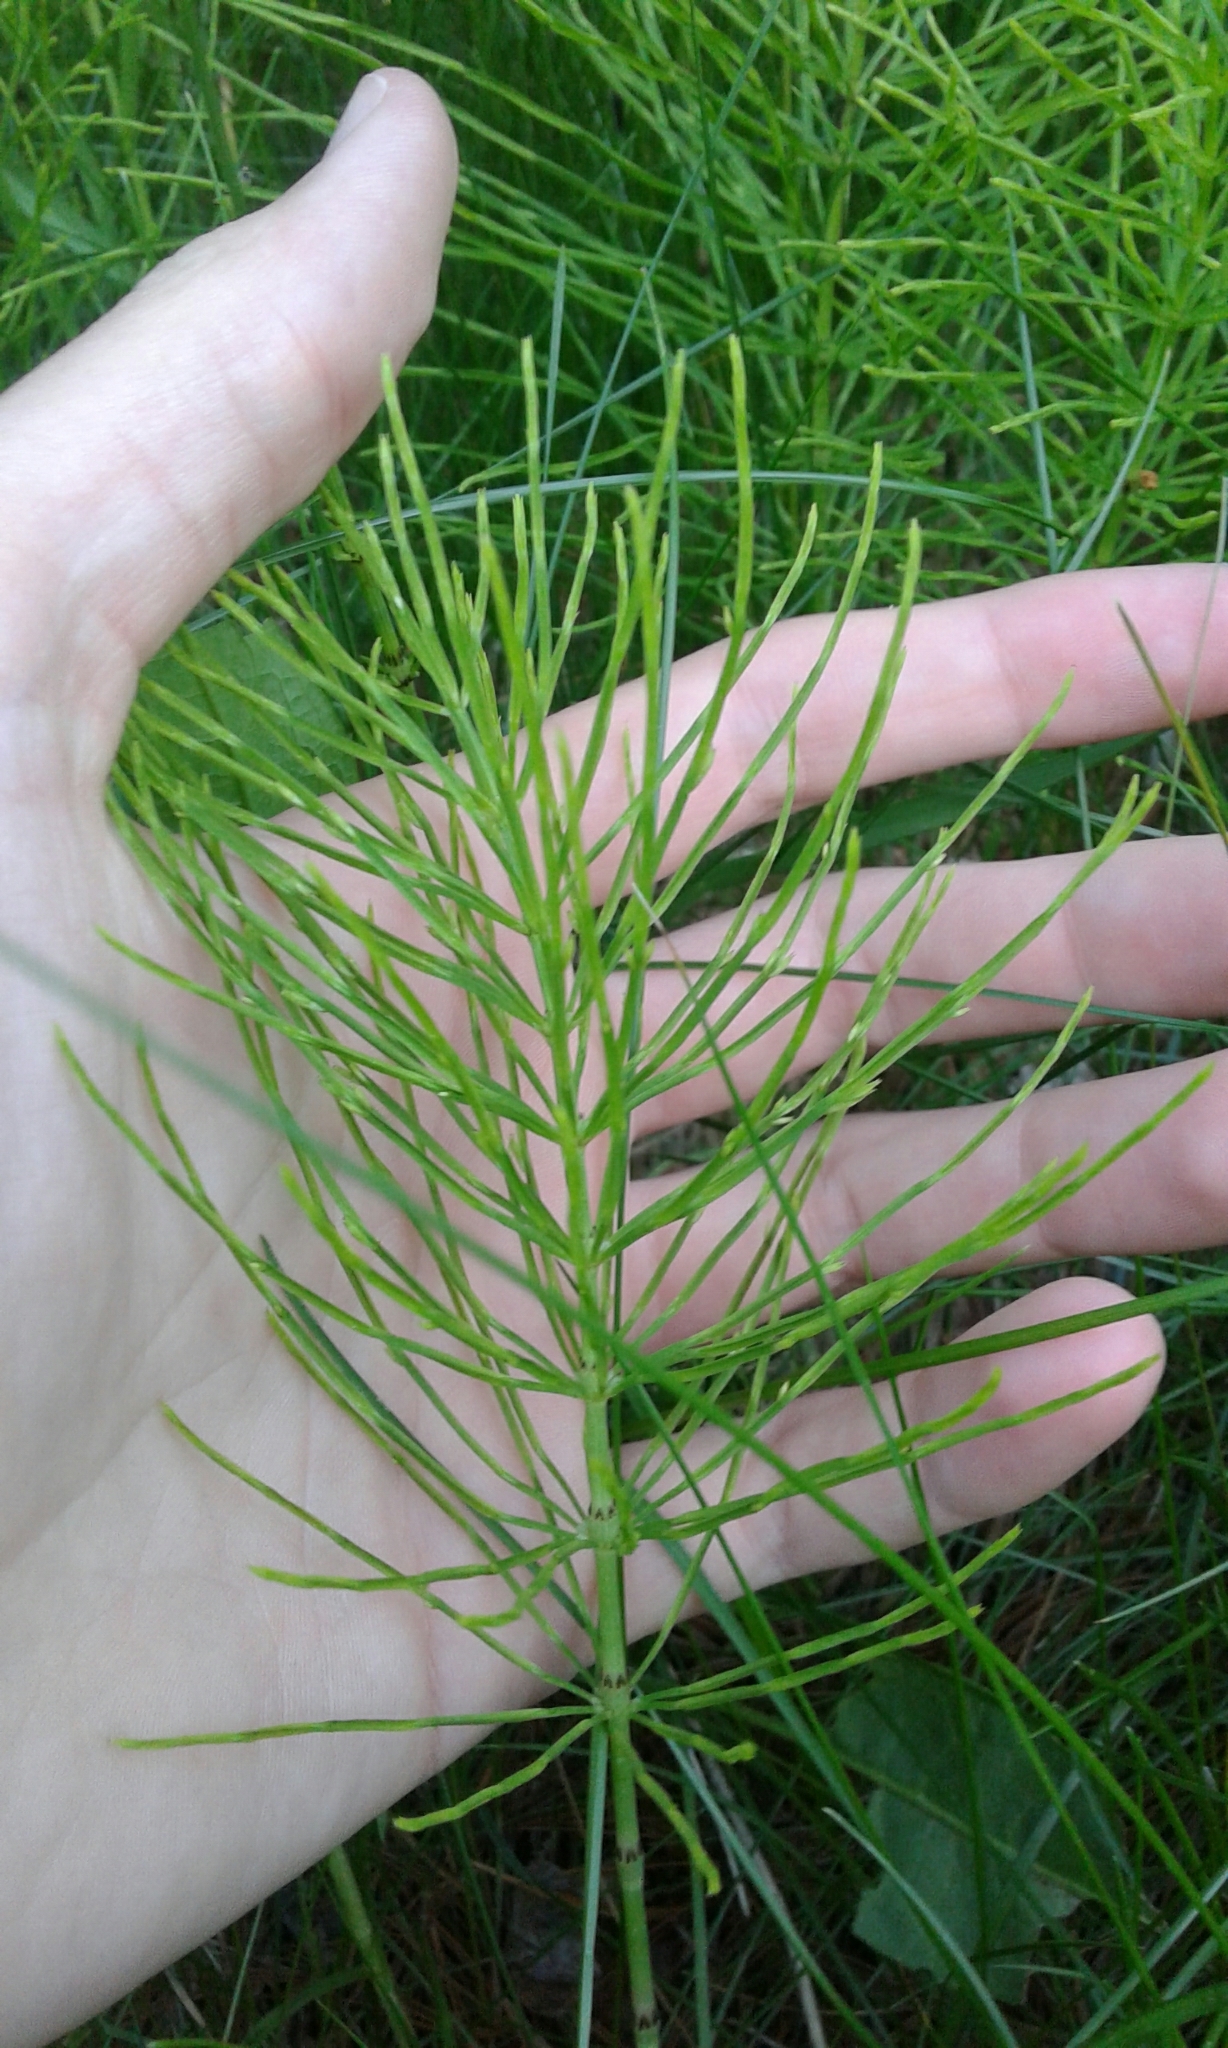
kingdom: Plantae
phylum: Tracheophyta
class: Polypodiopsida
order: Equisetales
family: Equisetaceae
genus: Equisetum
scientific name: Equisetum arvense
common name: Field horsetail
